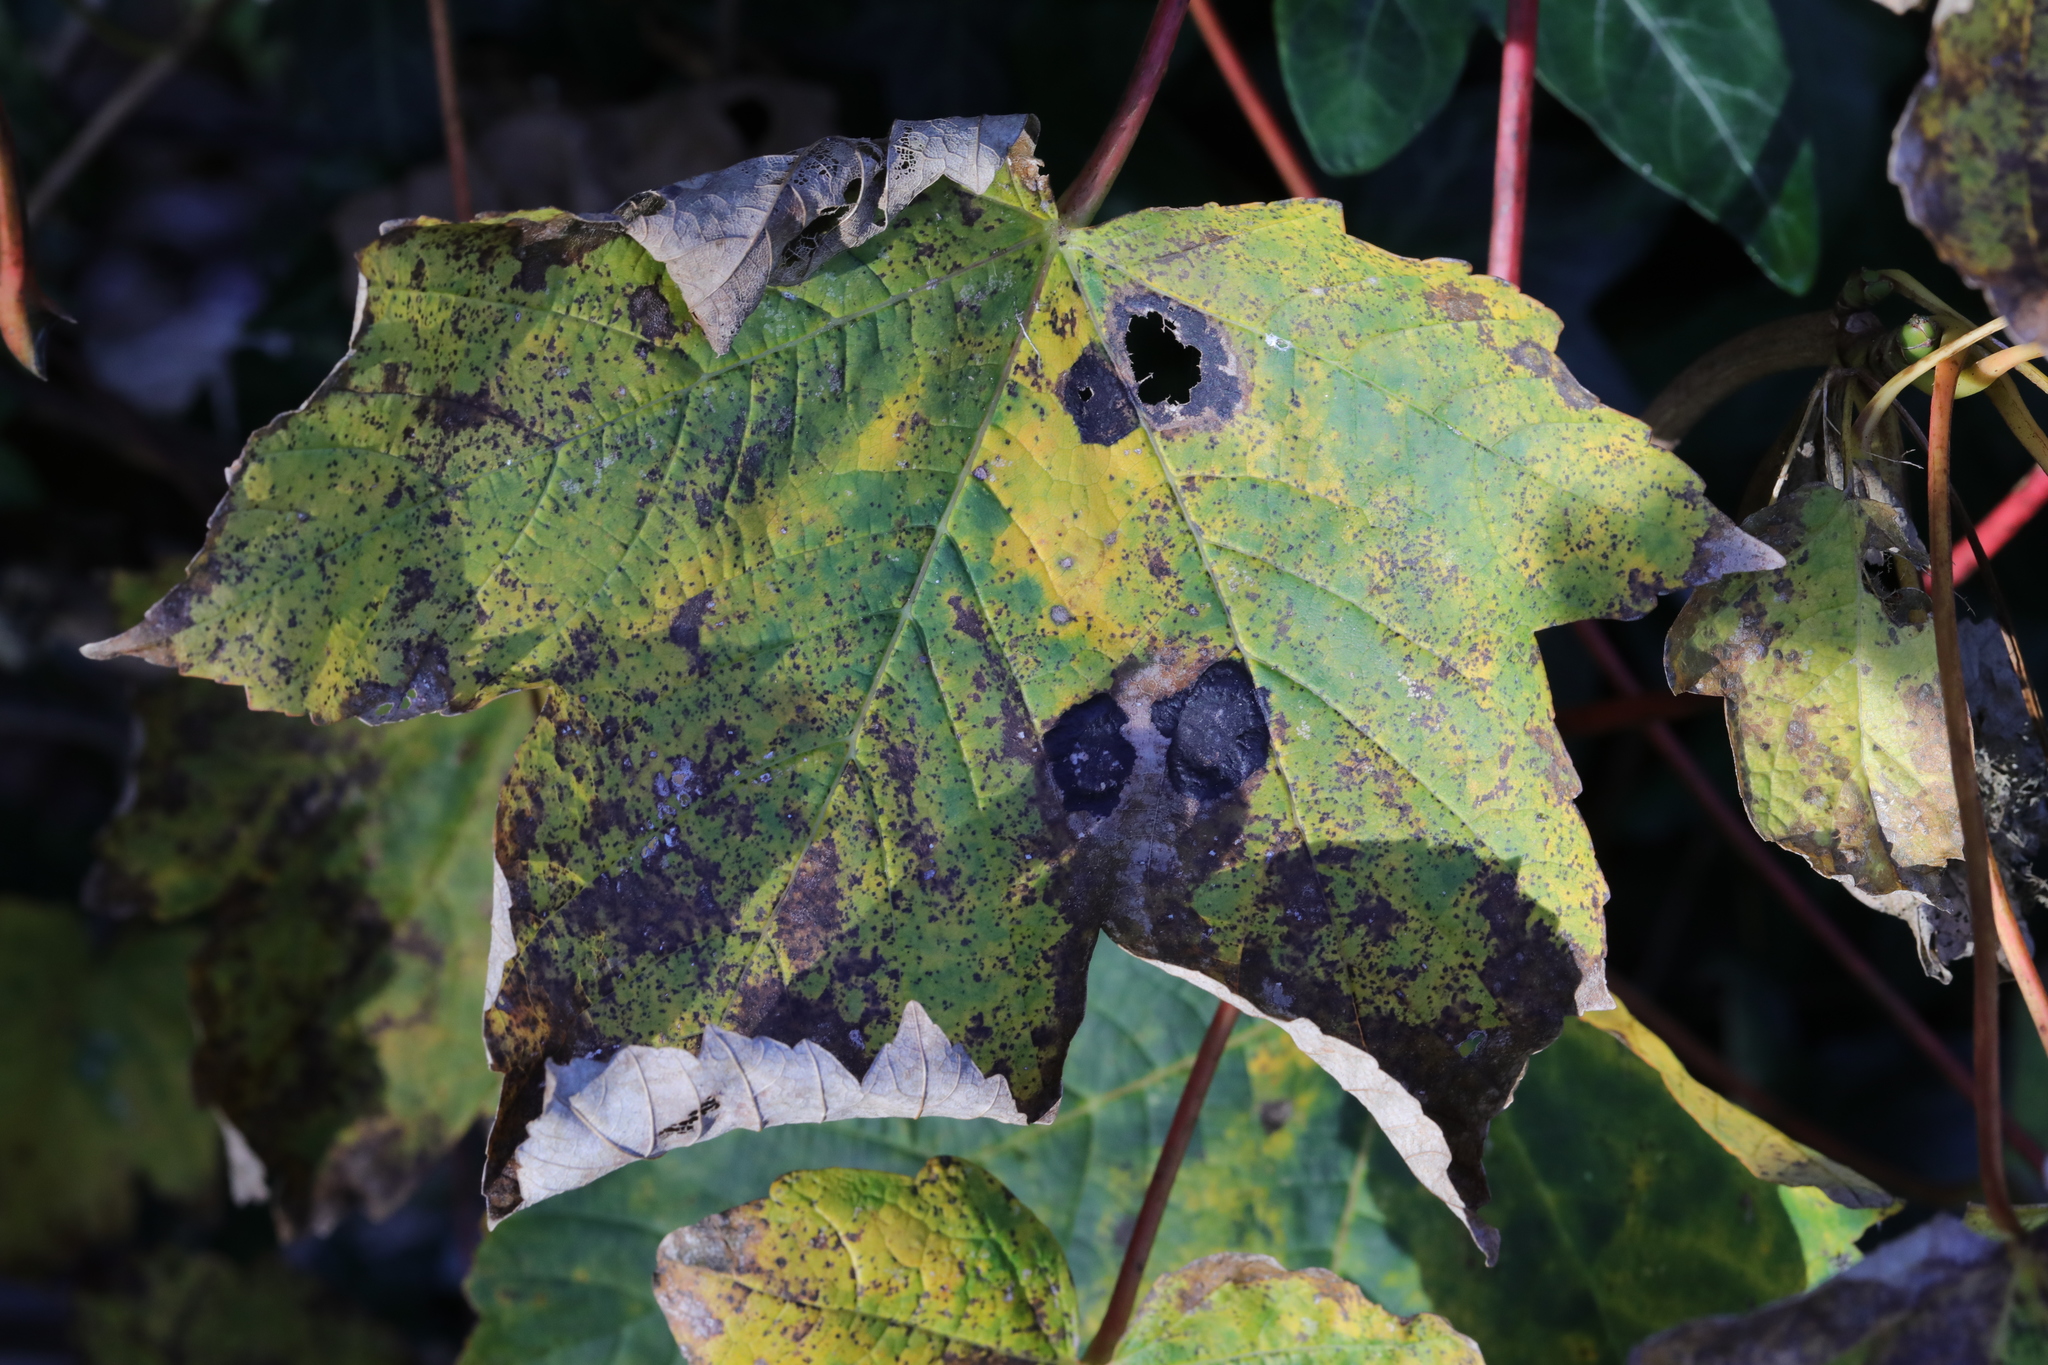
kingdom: Fungi
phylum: Ascomycota
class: Leotiomycetes
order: Rhytismatales
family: Rhytismataceae
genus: Rhytisma
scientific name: Rhytisma acerinum
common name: European tar spot
